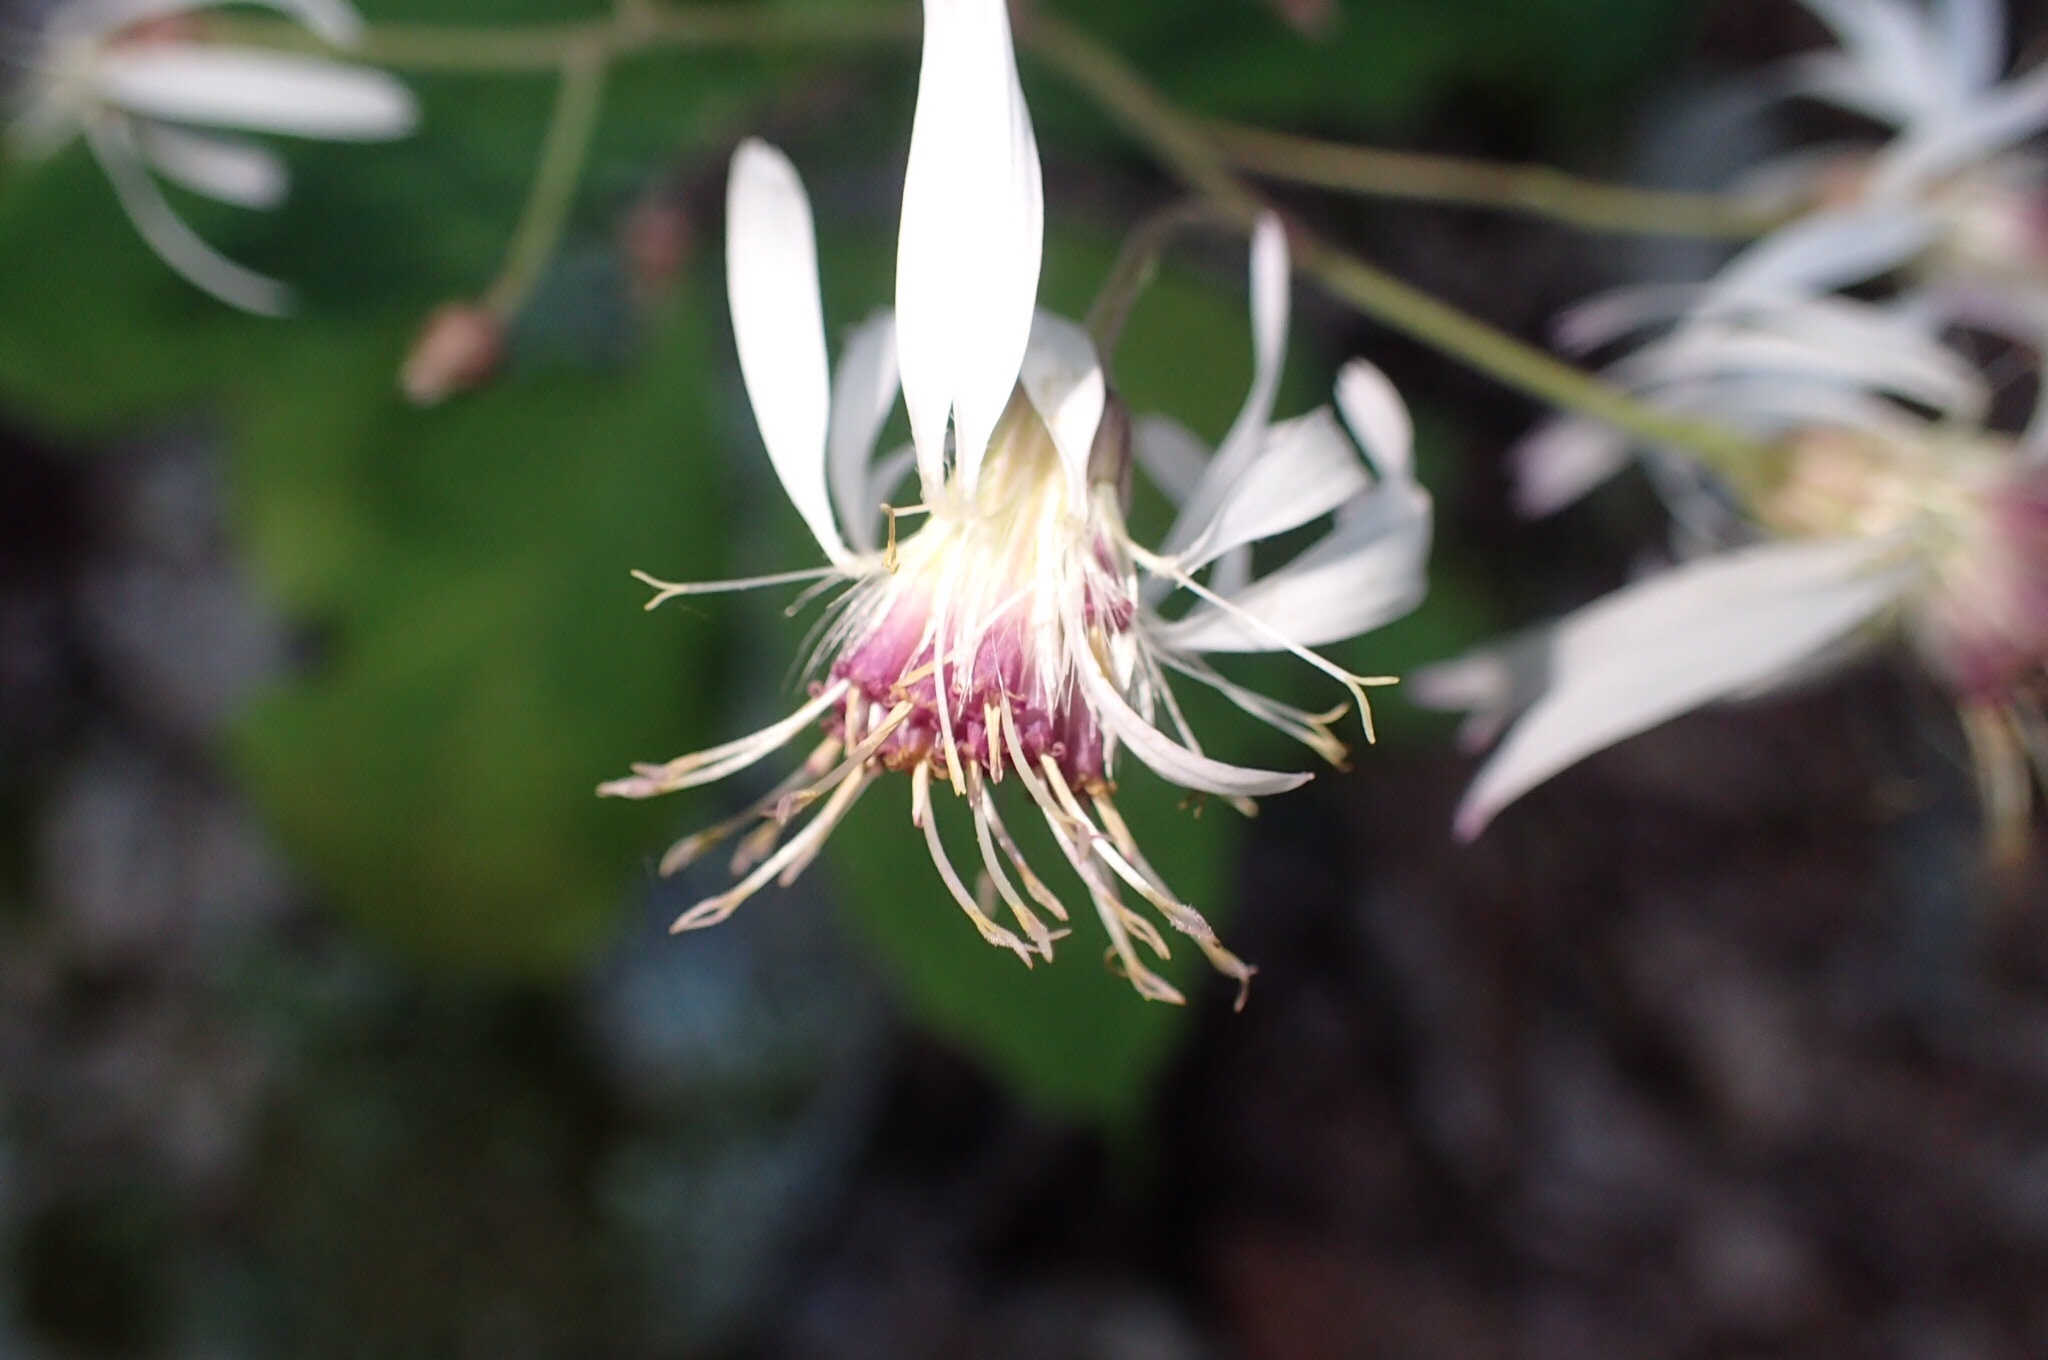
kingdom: Plantae
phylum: Tracheophyta
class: Magnoliopsida
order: Asterales
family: Asteraceae
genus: Oclemena
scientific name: Oclemena acuminata
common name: Mountain aster
